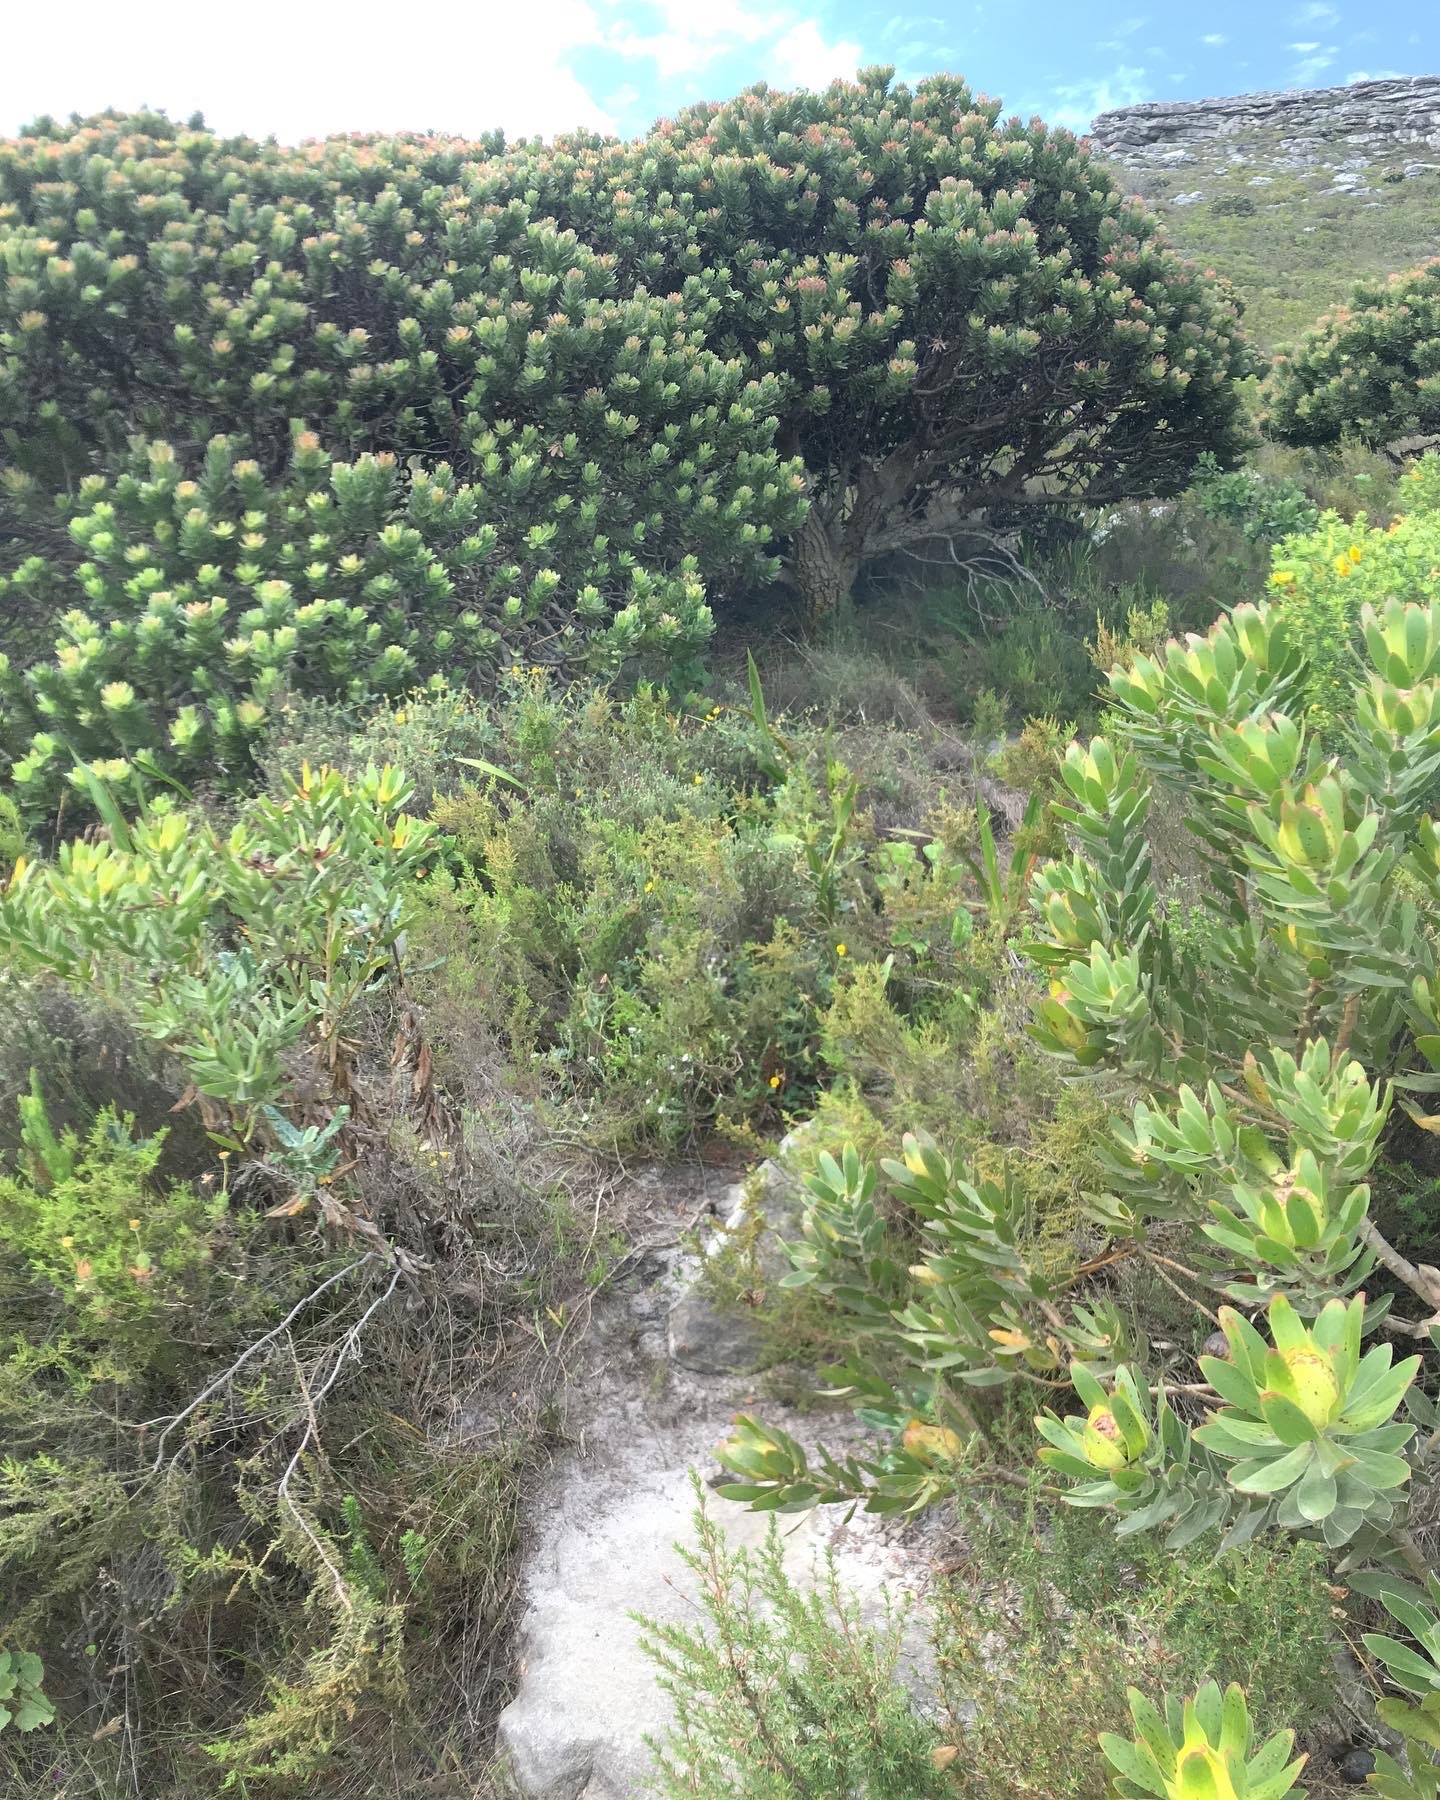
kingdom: Plantae
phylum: Tracheophyta
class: Magnoliopsida
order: Proteales
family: Proteaceae
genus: Mimetes
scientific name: Mimetes fimbriifolius
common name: Fringed bottlebrush
